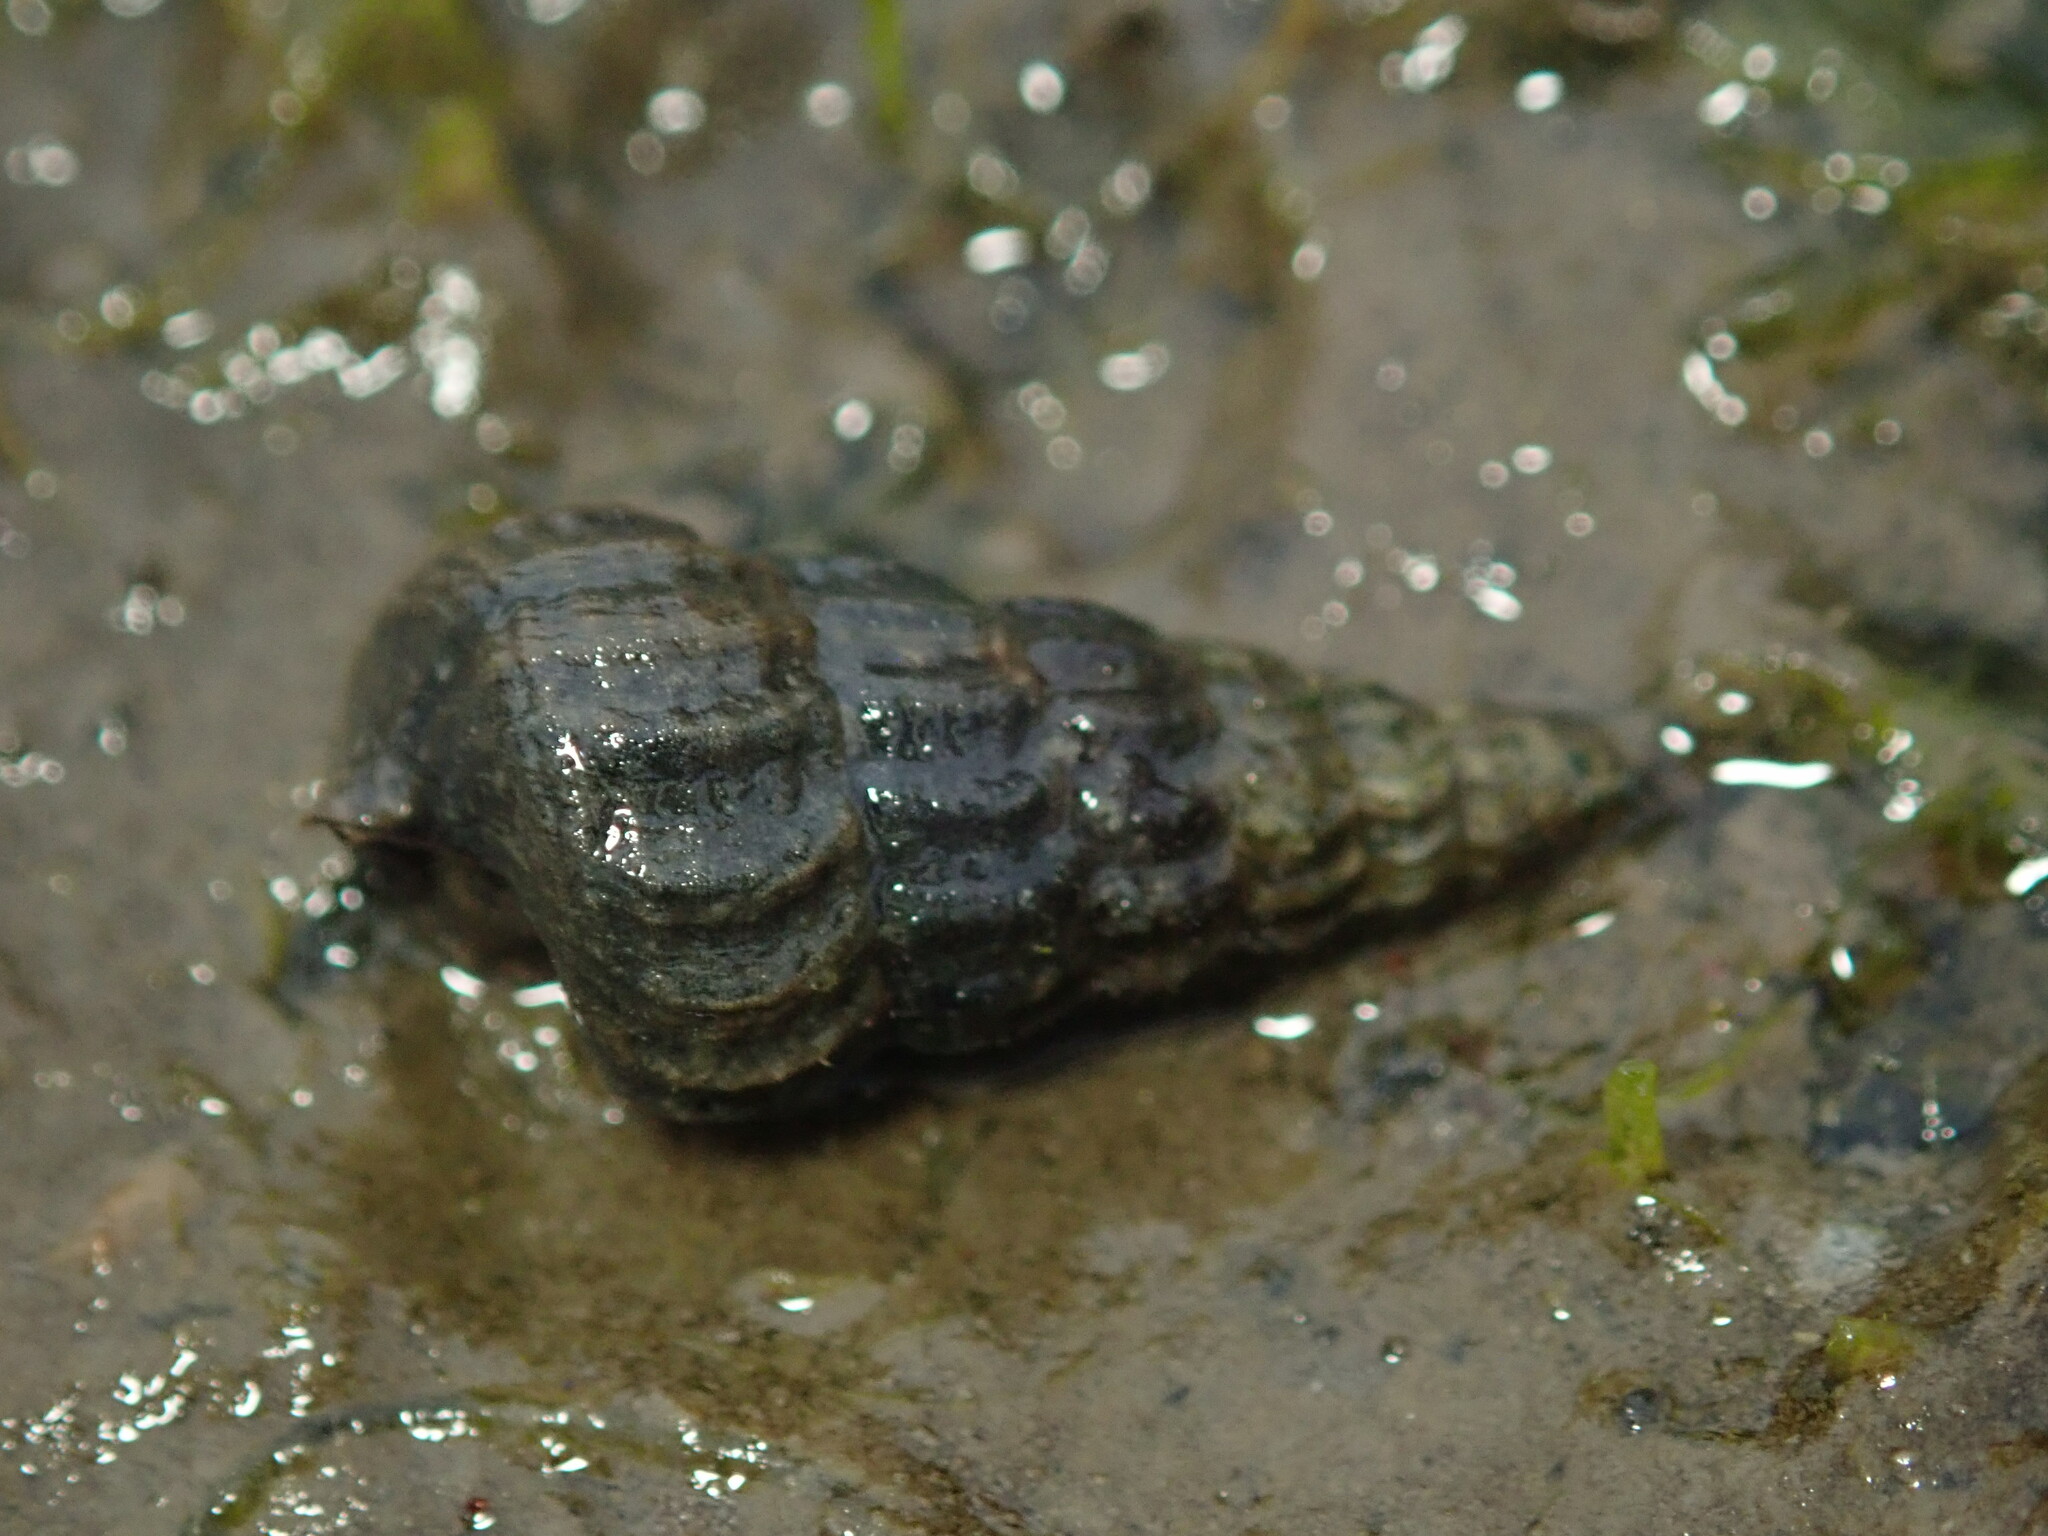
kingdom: Animalia
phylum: Mollusca
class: Gastropoda
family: Potamididae
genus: Cerithideopsis
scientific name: Cerithideopsis californica
